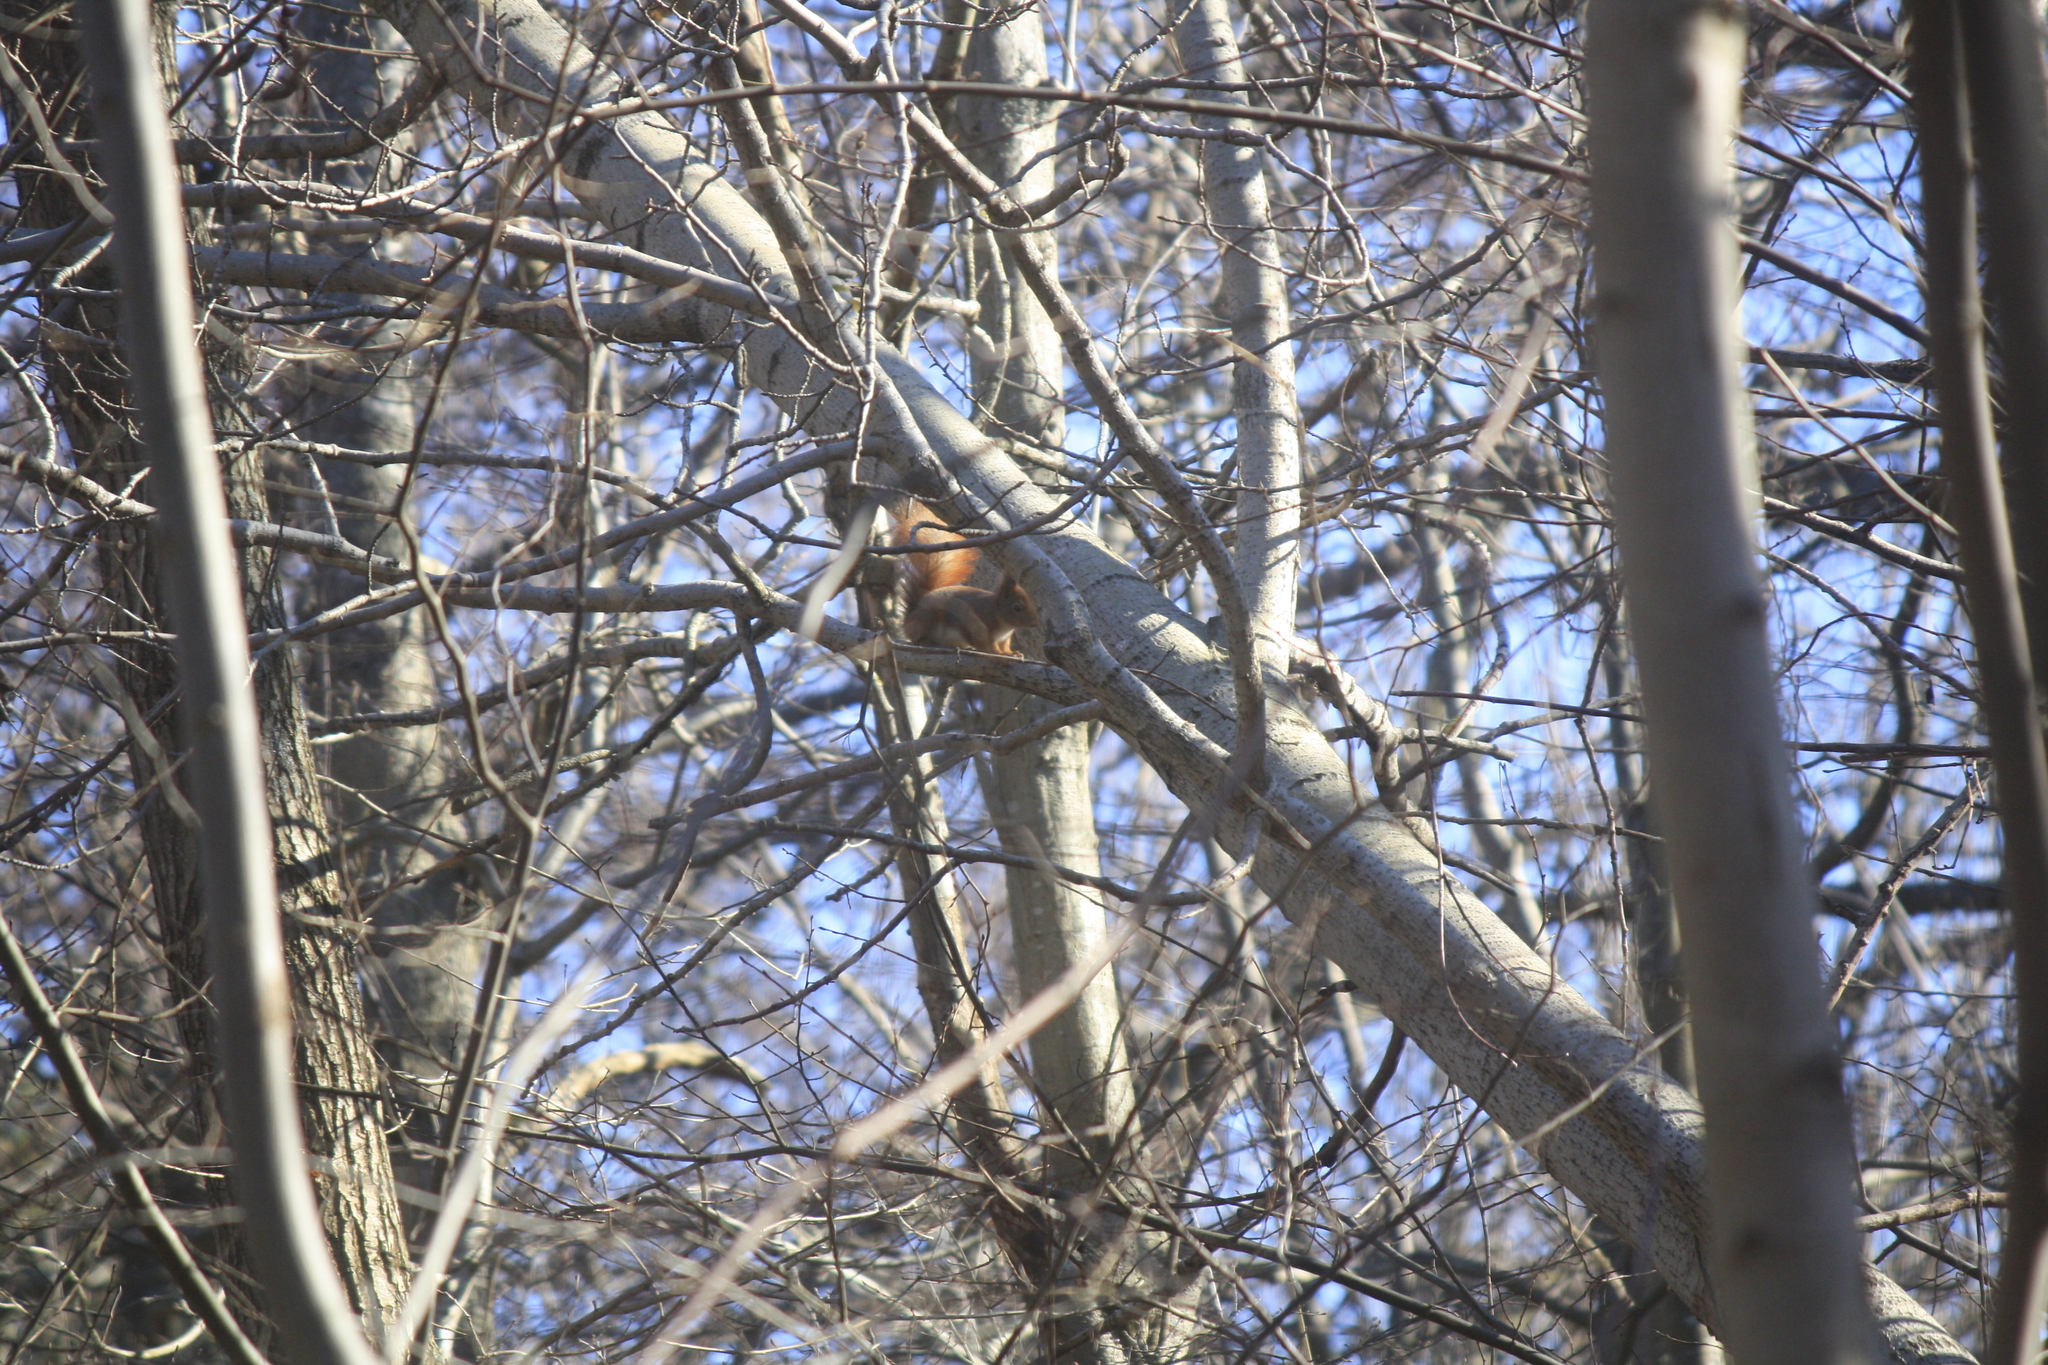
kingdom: Animalia
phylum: Chordata
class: Mammalia
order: Rodentia
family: Sciuridae
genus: Sciurus
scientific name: Sciurus vulgaris
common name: Eurasian red squirrel
